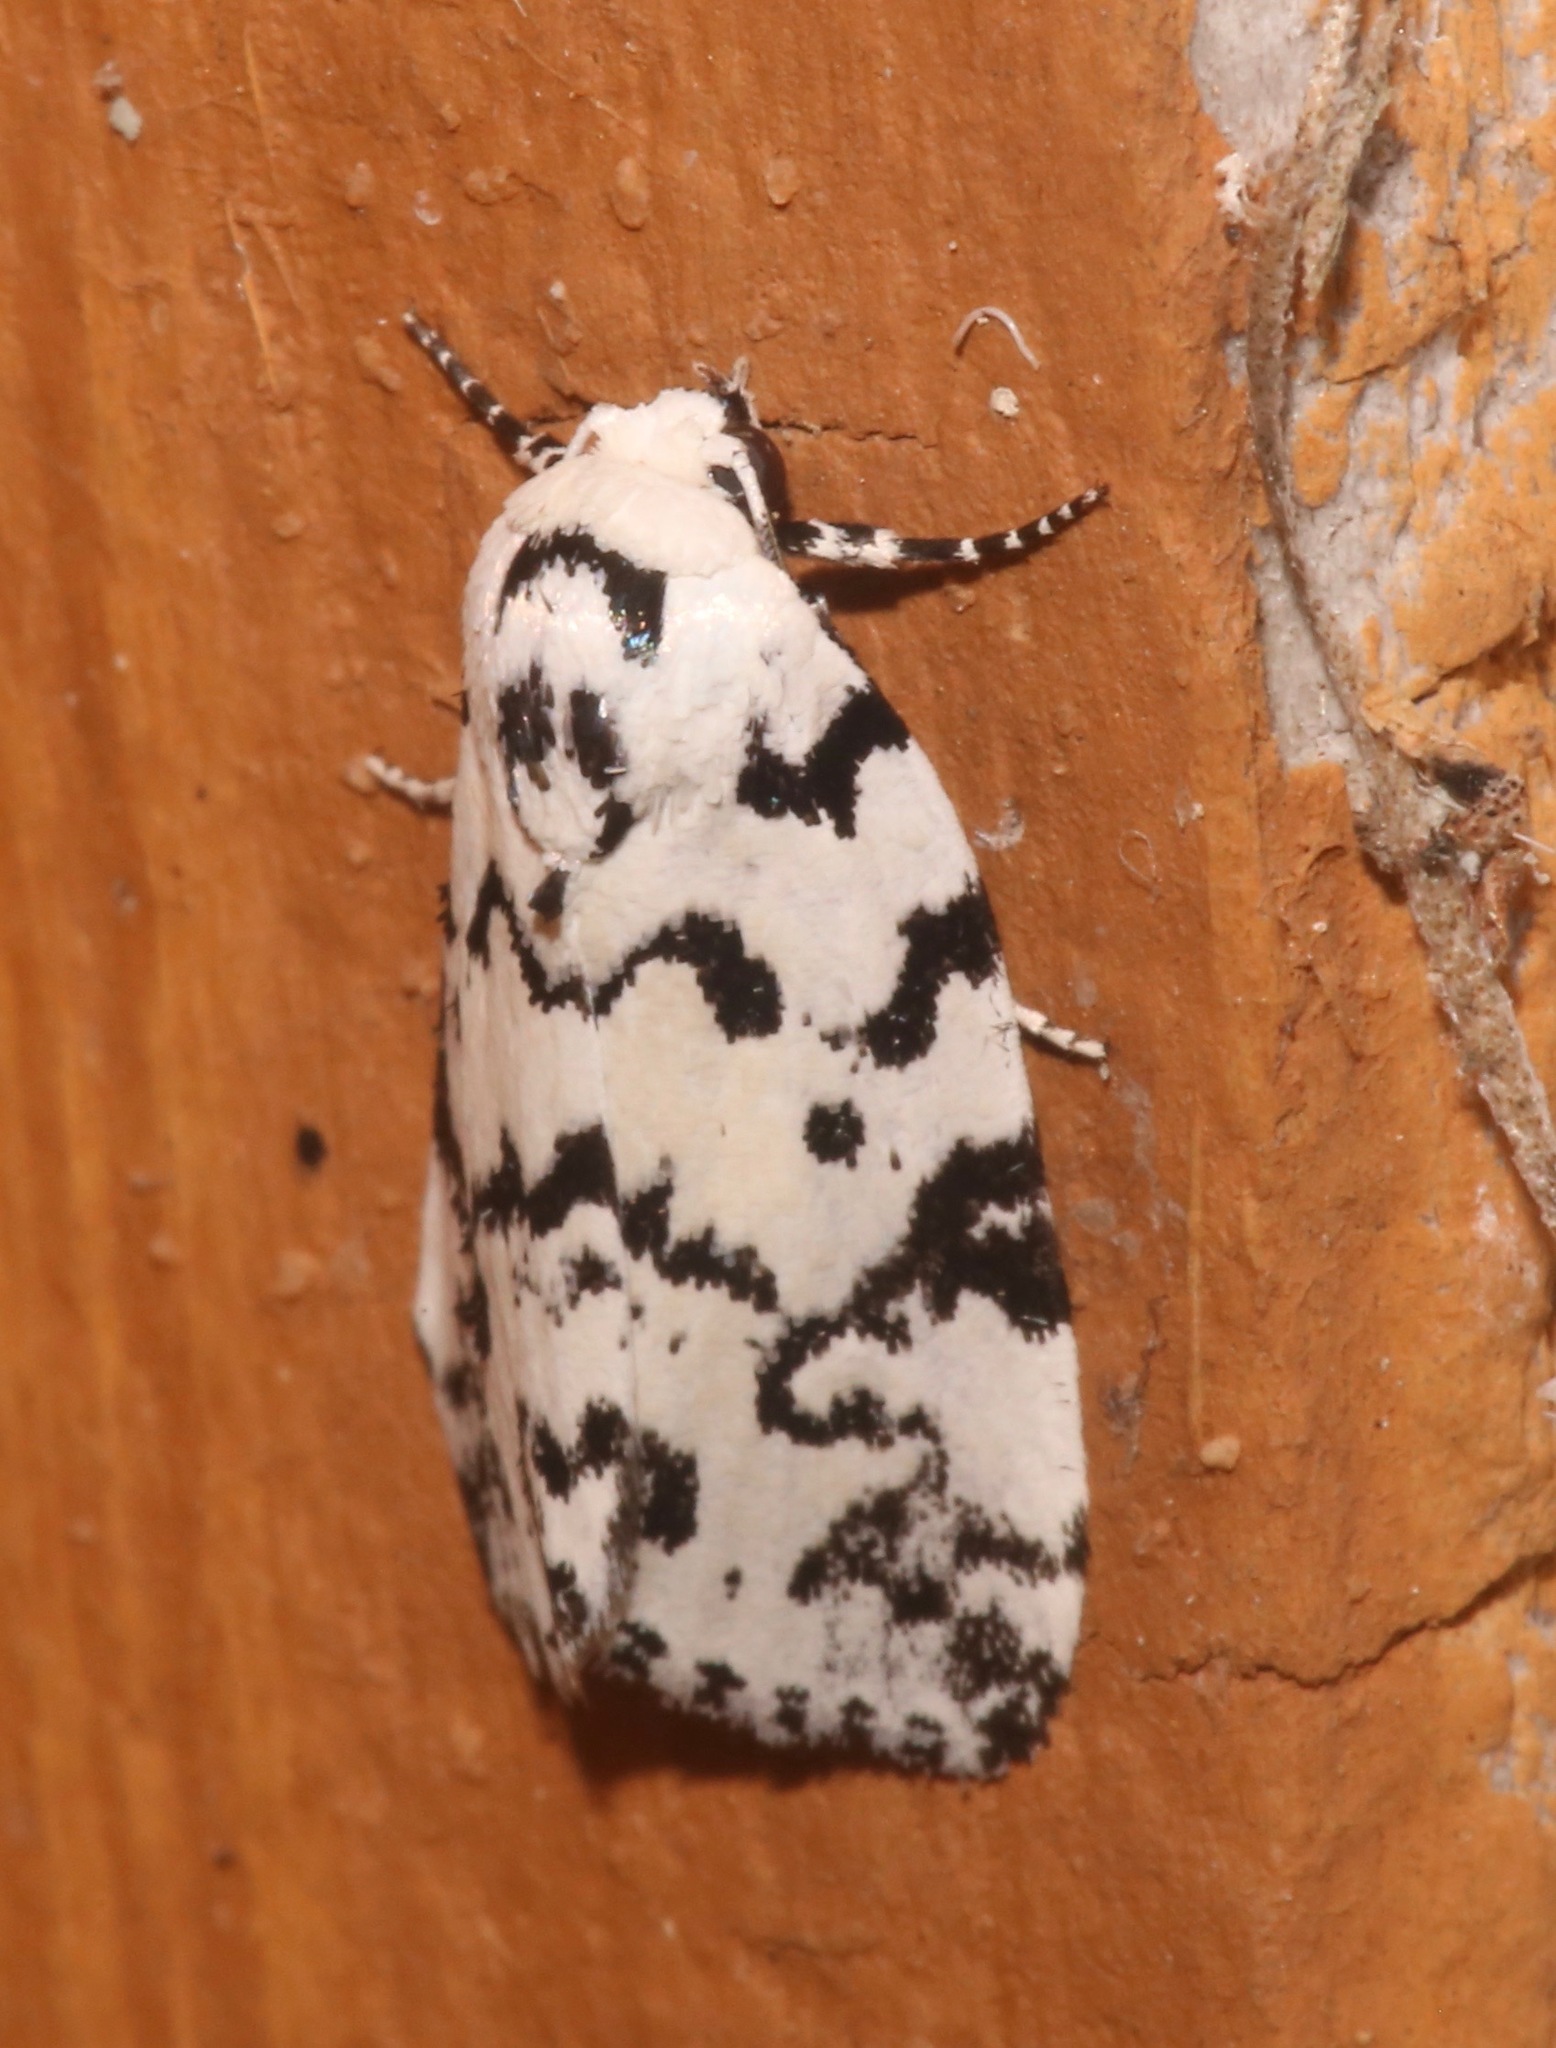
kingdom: Animalia
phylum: Arthropoda
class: Insecta
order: Lepidoptera
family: Noctuidae
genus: Polygrammate
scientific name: Polygrammate hebraeicum
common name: Hebrew moth
